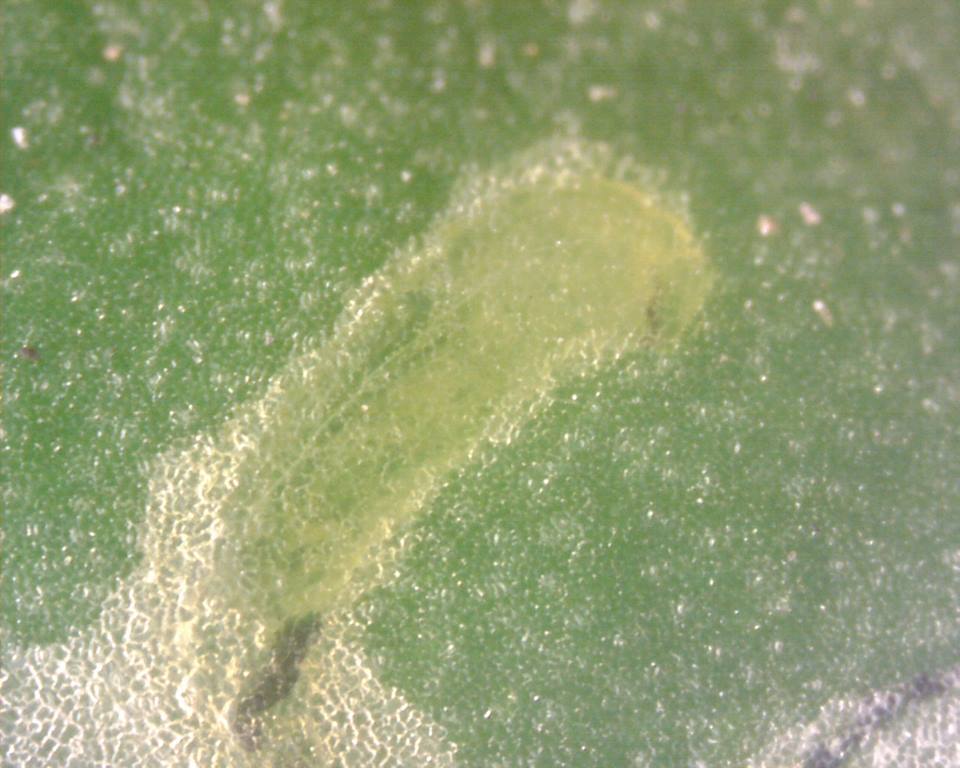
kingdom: Animalia
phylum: Arthropoda
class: Insecta
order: Diptera
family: Agromyzidae
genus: Liriomyza
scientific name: Liriomyza bryoniae
